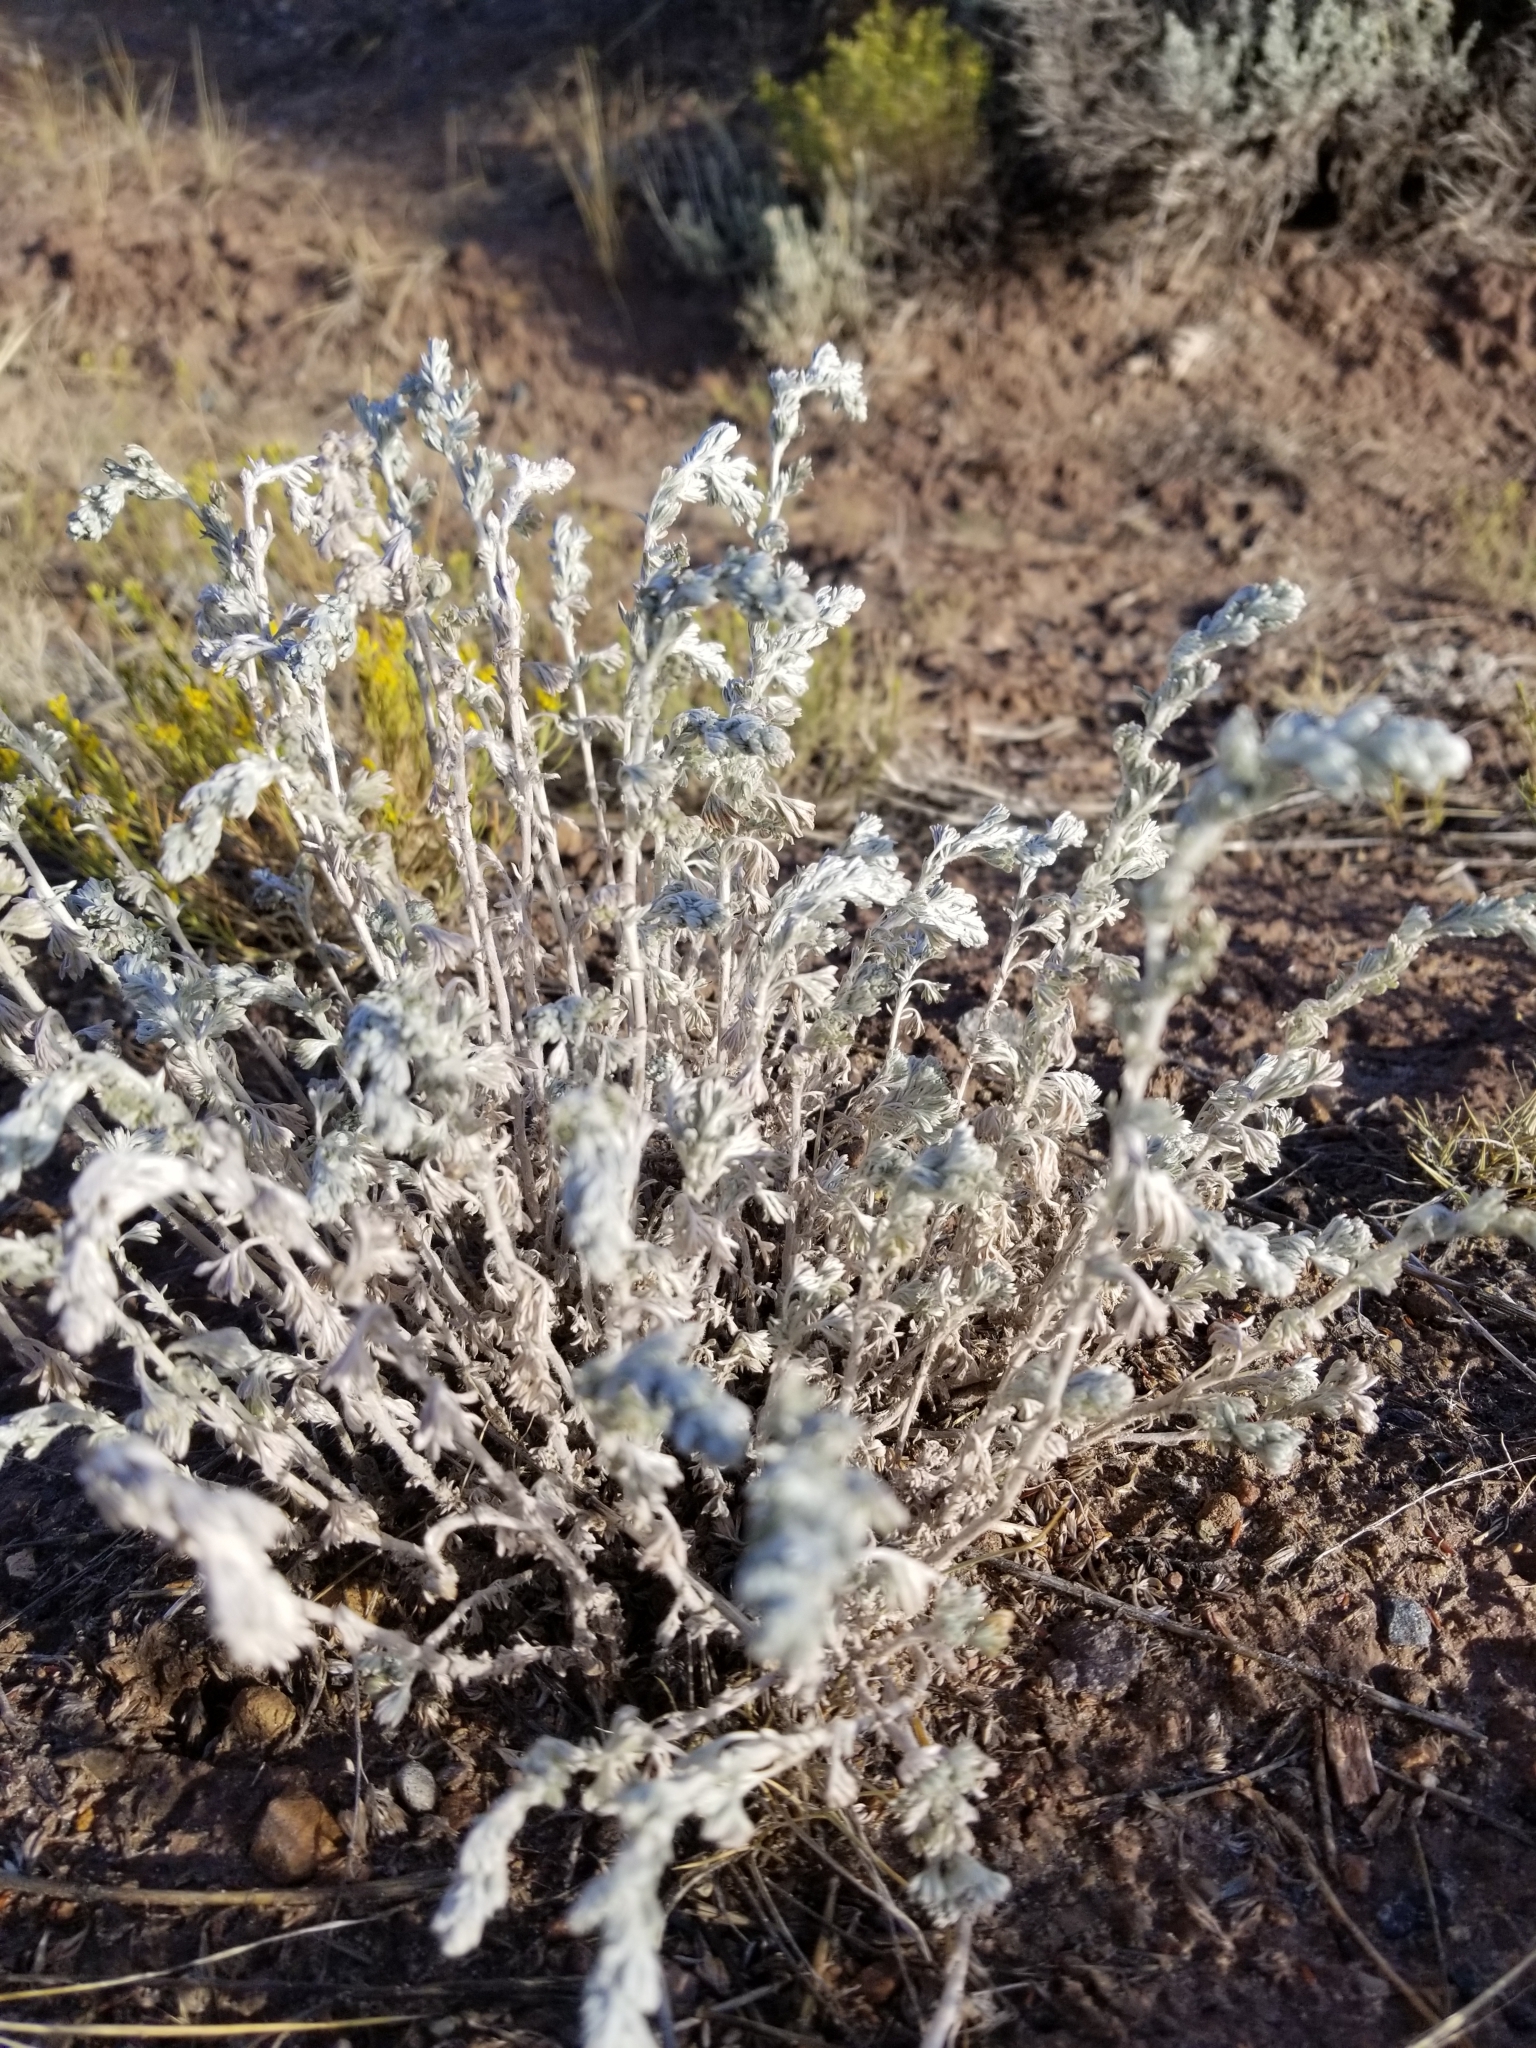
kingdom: Plantae
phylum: Tracheophyta
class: Magnoliopsida
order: Asterales
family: Asteraceae
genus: Artemisia
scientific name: Artemisia frigida
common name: Prairie sagewort
